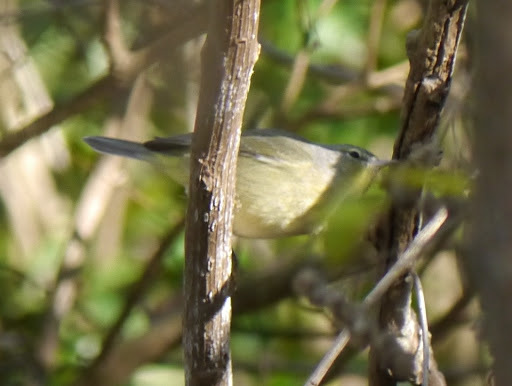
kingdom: Animalia
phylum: Chordata
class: Aves
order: Passeriformes
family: Parulidae
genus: Leiothlypis
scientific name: Leiothlypis celata
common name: Orange-crowned warbler
